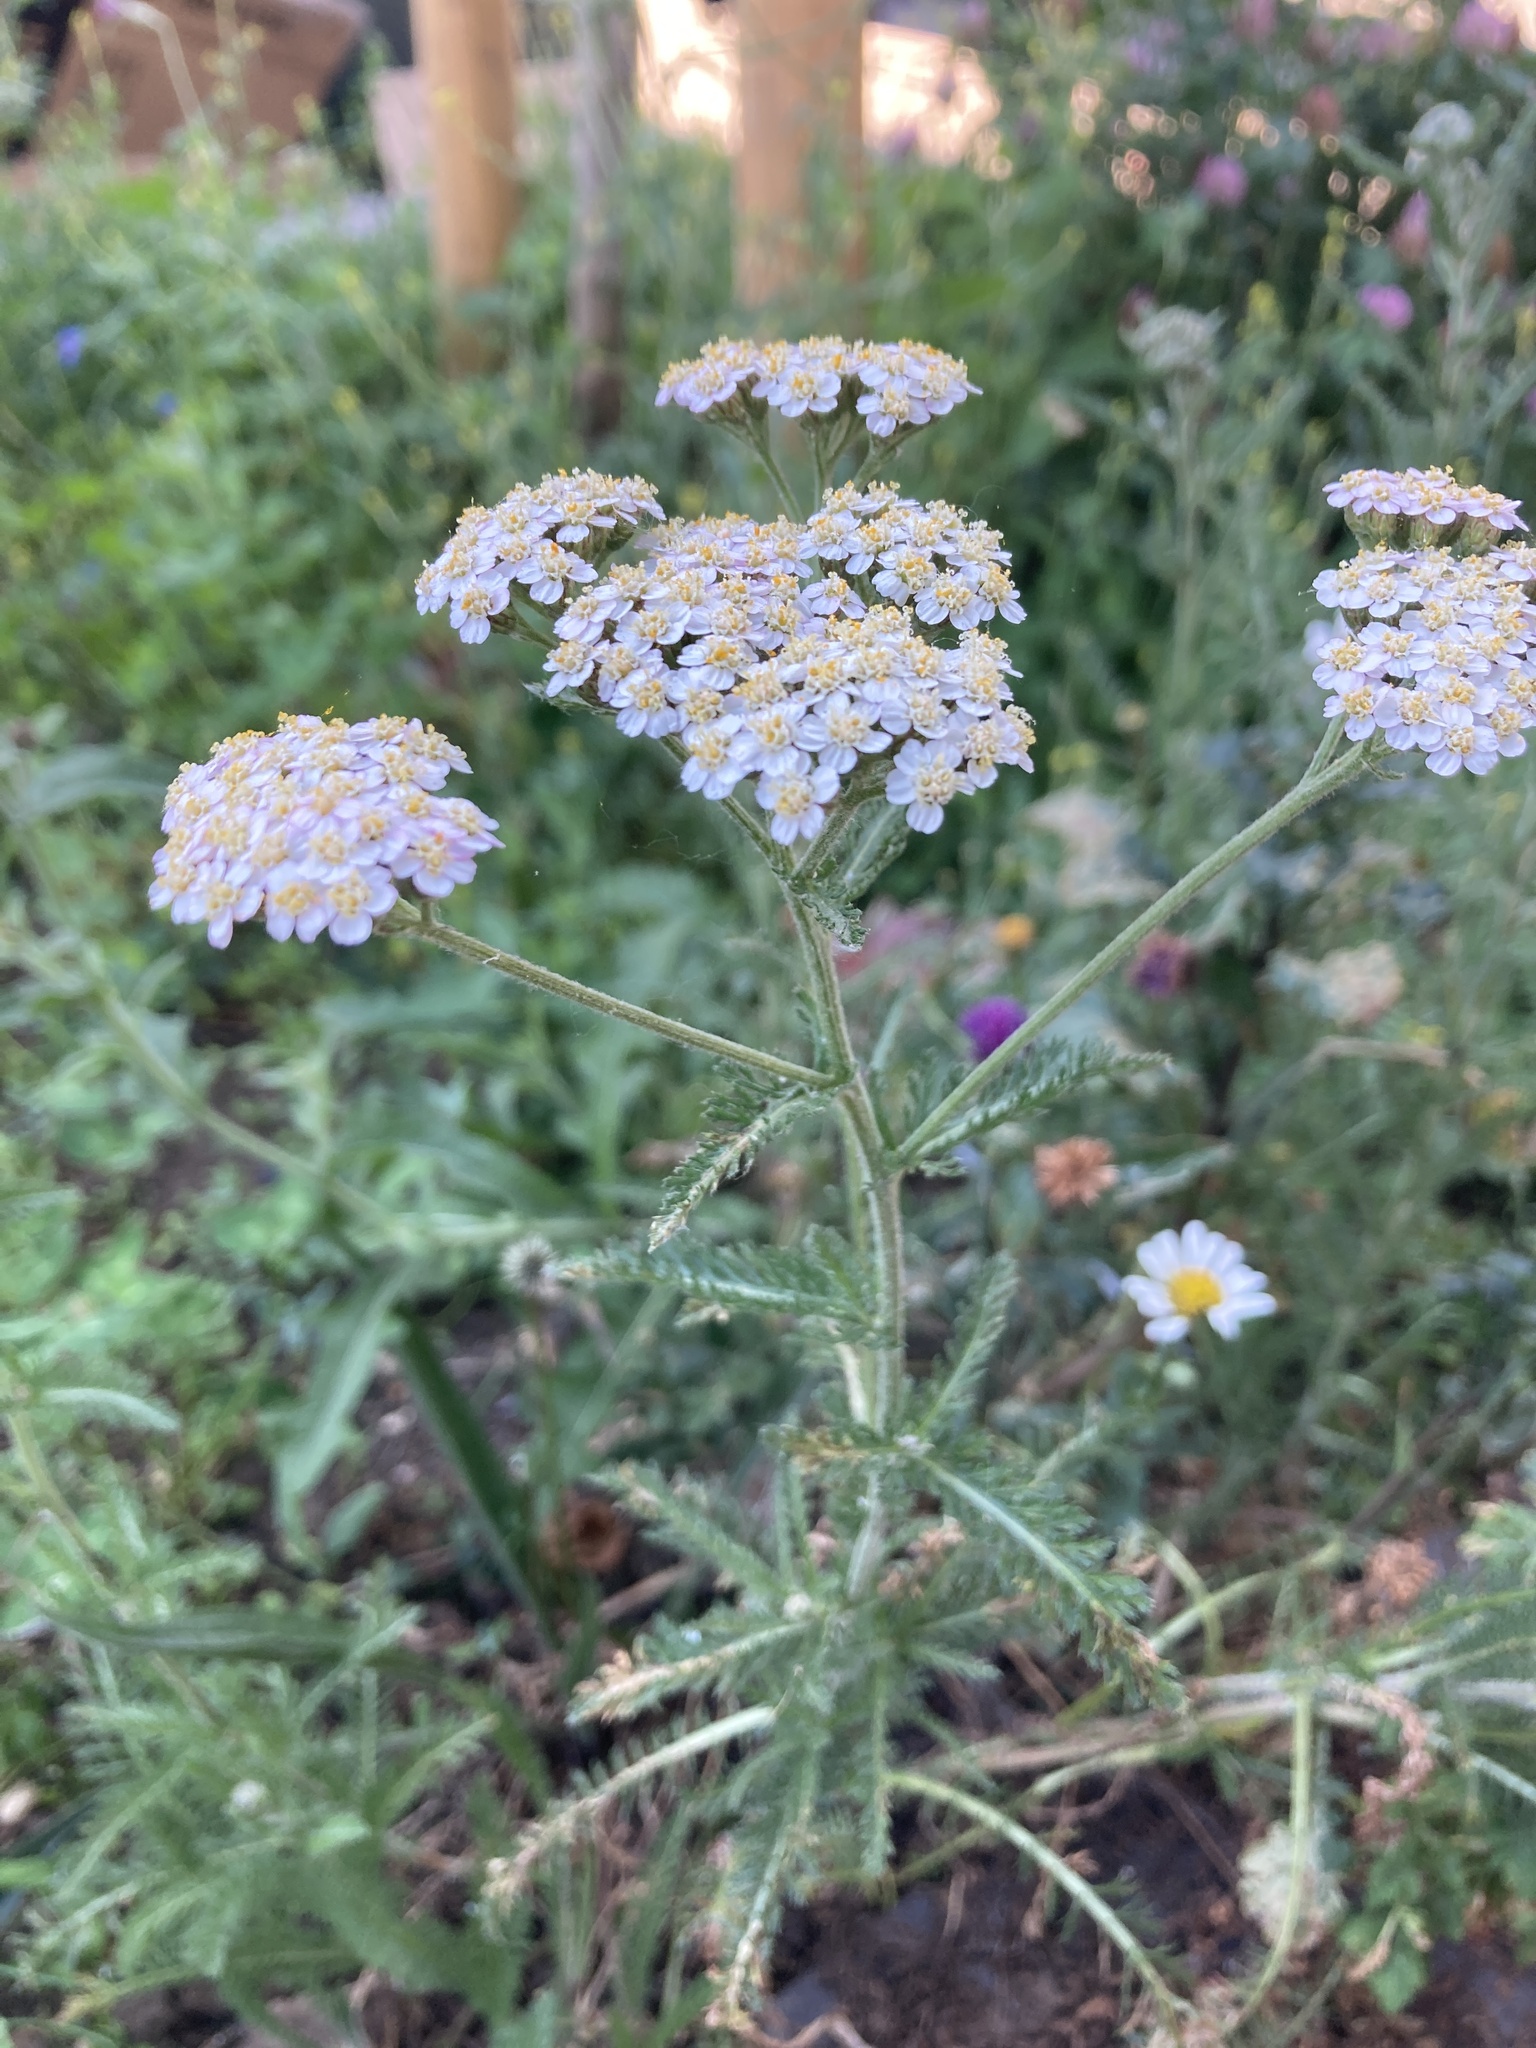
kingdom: Plantae
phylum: Tracheophyta
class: Magnoliopsida
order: Asterales
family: Asteraceae
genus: Achillea
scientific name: Achillea millefolium
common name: Yarrow
